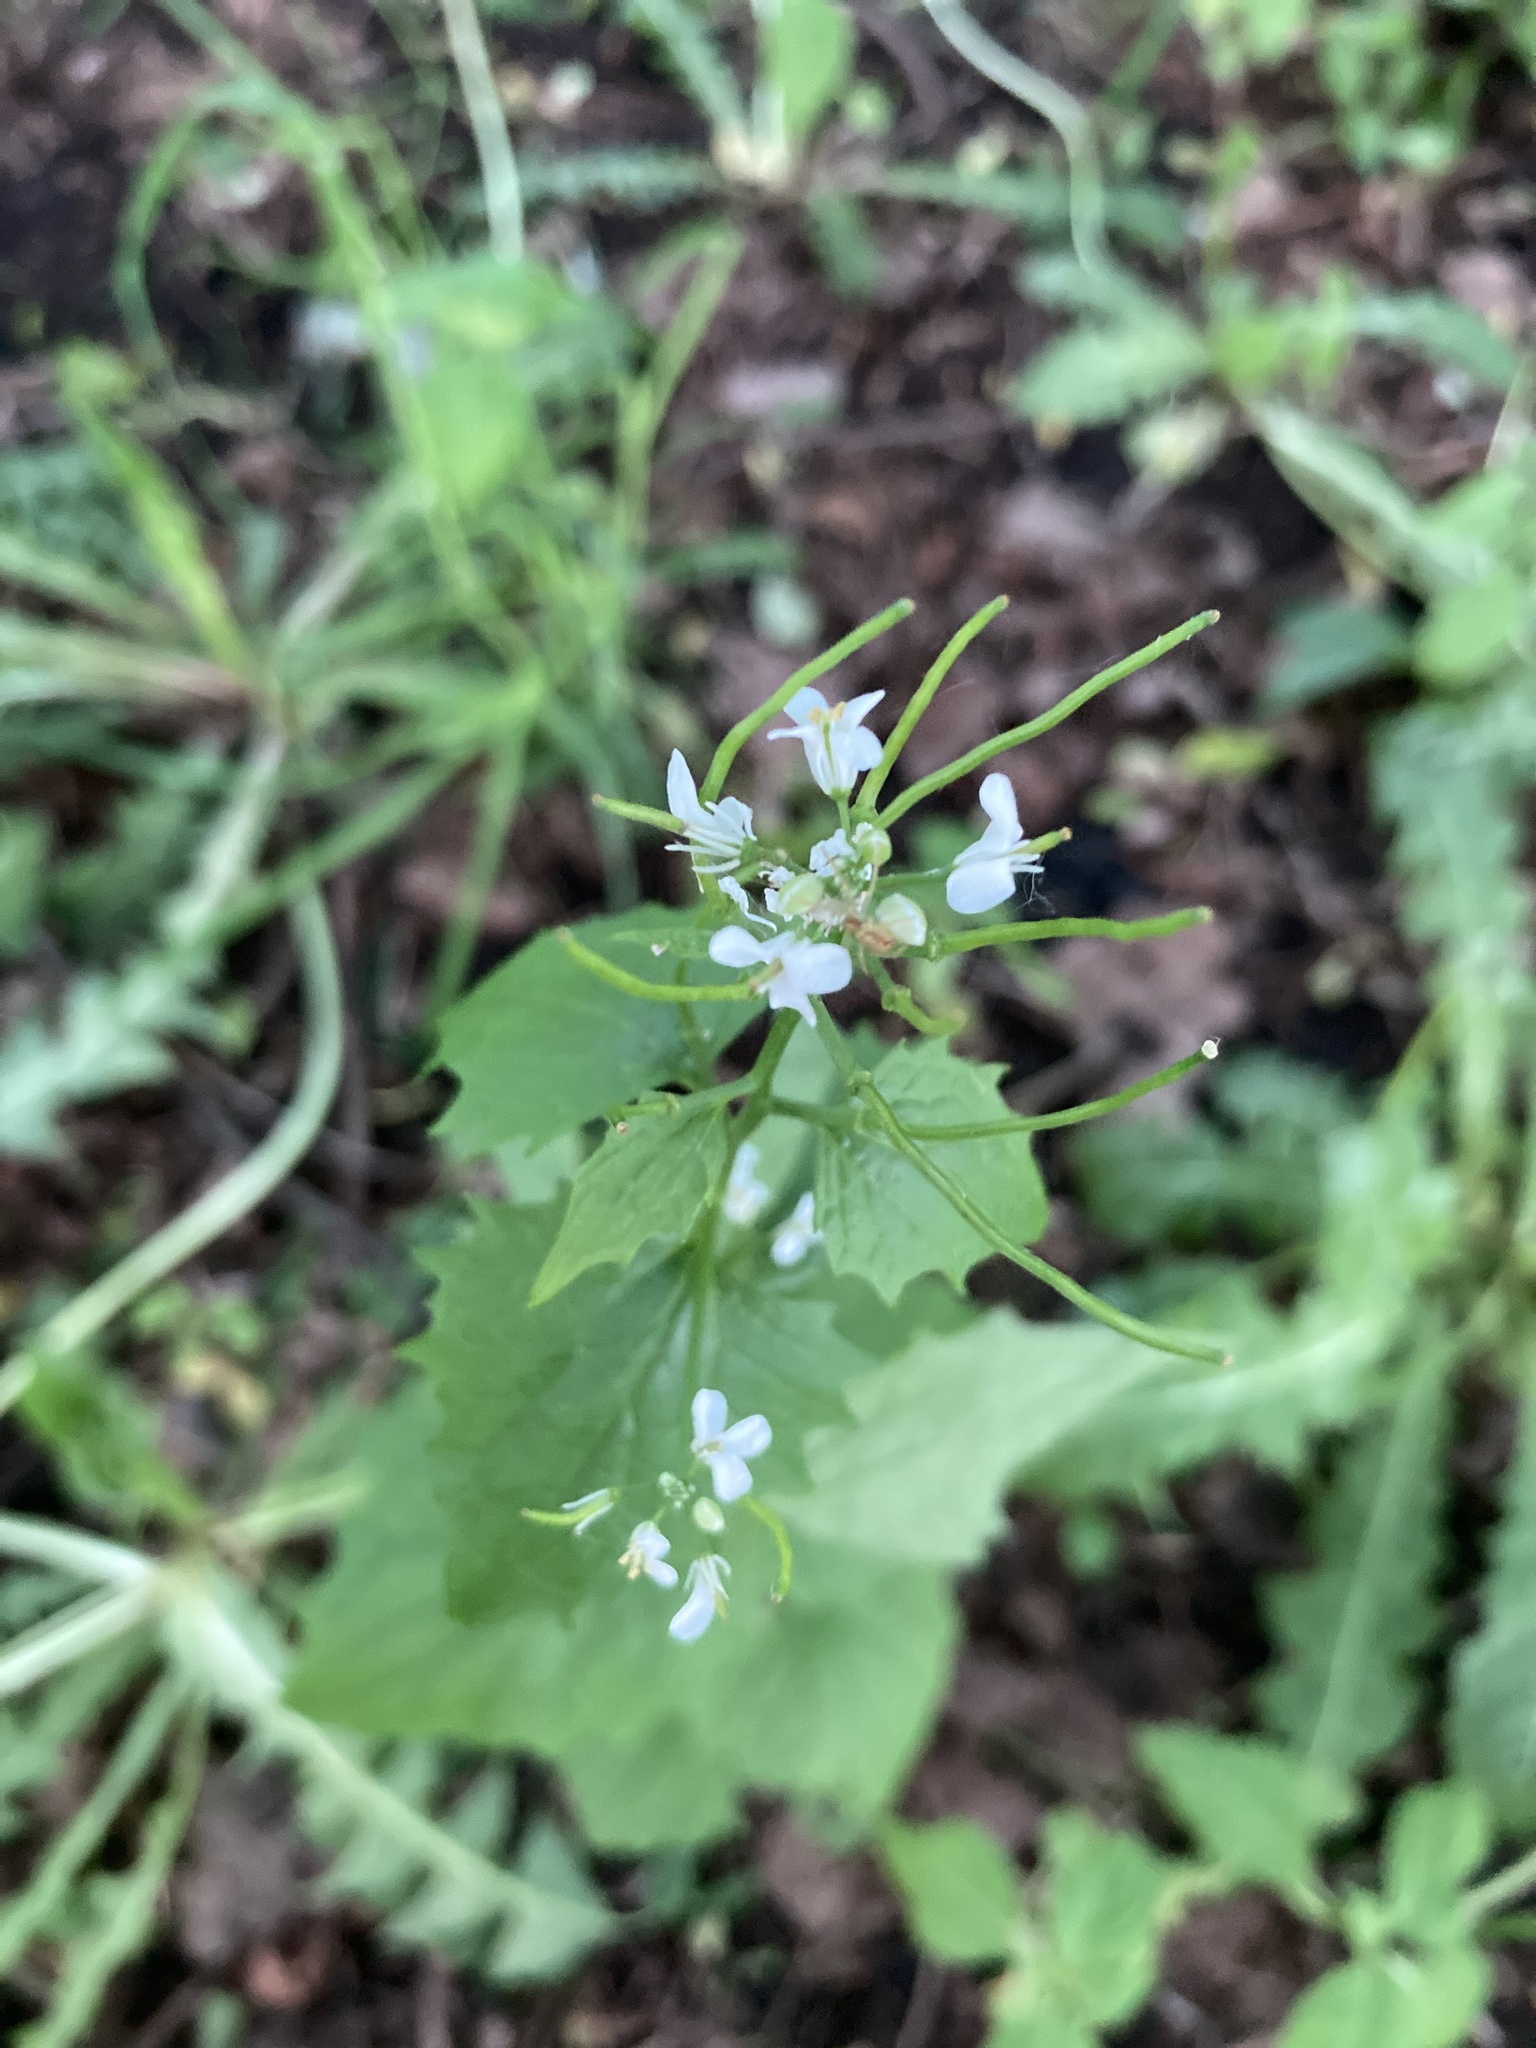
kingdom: Plantae
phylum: Tracheophyta
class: Magnoliopsida
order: Brassicales
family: Brassicaceae
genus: Alliaria
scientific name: Alliaria petiolata
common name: Garlic mustard
